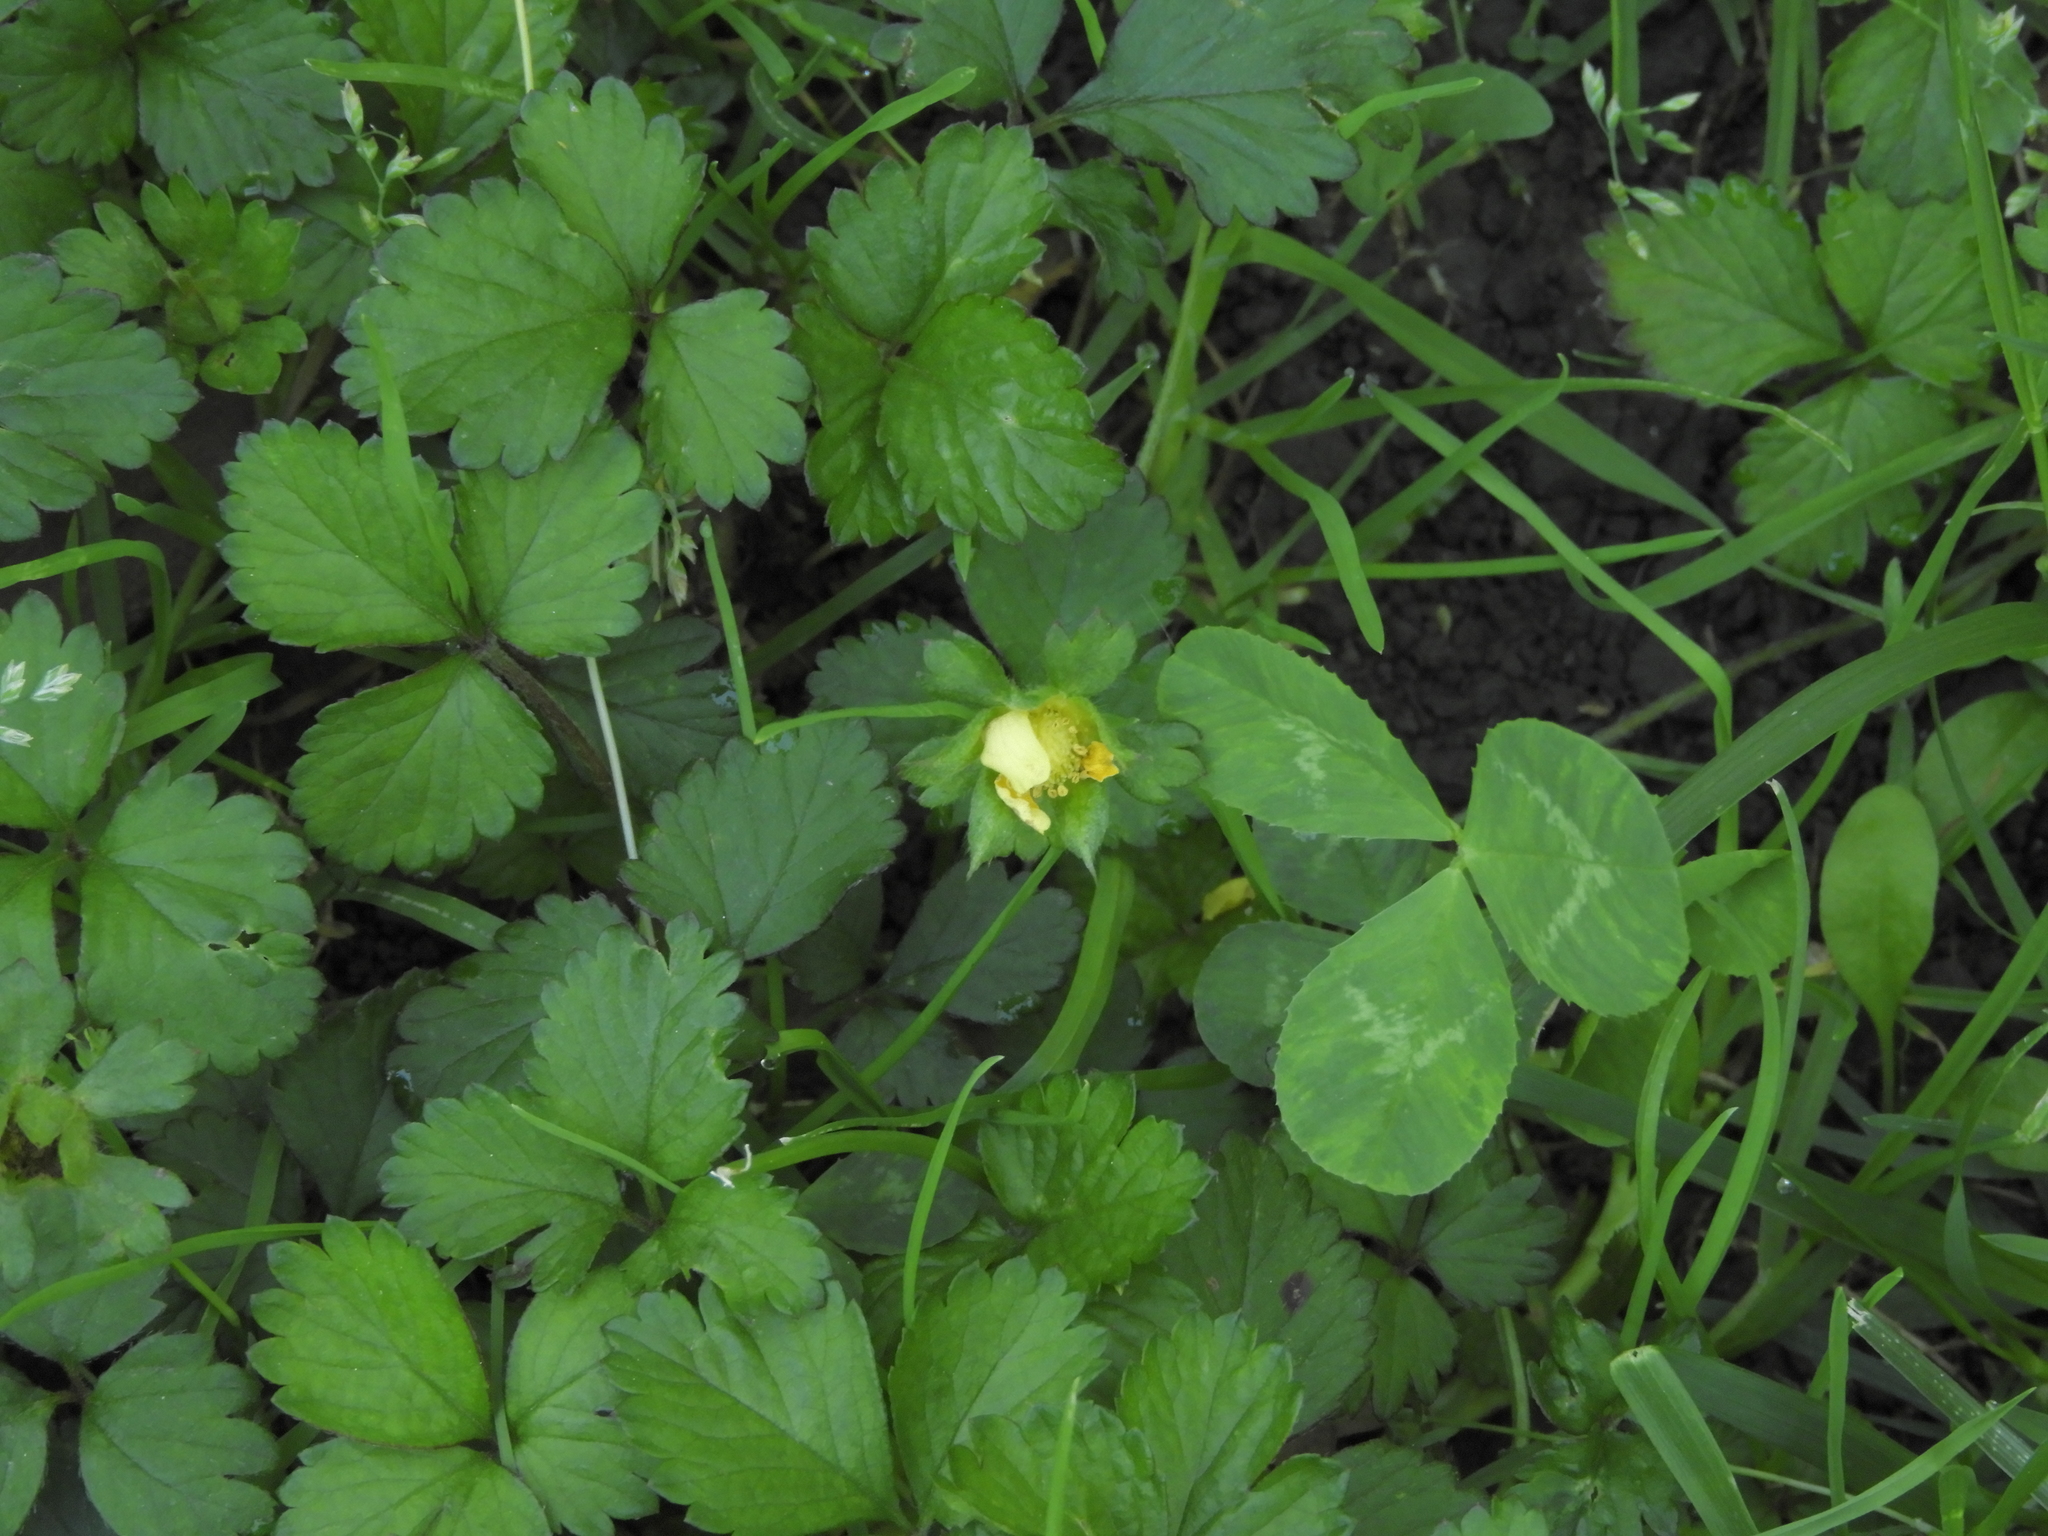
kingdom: Plantae
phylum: Tracheophyta
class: Magnoliopsida
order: Rosales
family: Rosaceae
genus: Potentilla
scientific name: Potentilla indica
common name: Yellow-flowered strawberry
